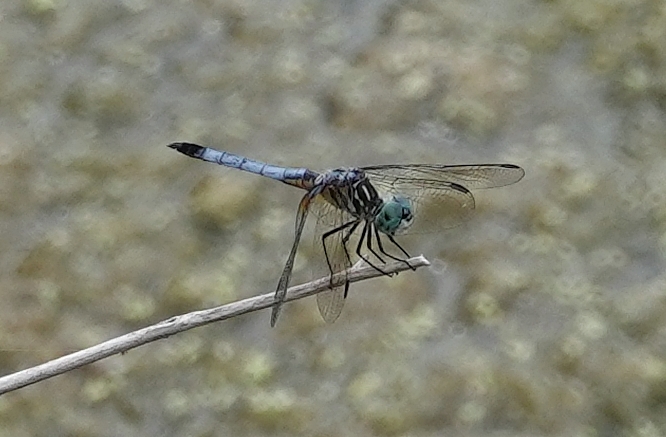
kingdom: Animalia
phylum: Arthropoda
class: Insecta
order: Odonata
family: Libellulidae
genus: Pachydiplax
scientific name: Pachydiplax longipennis
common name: Blue dasher
